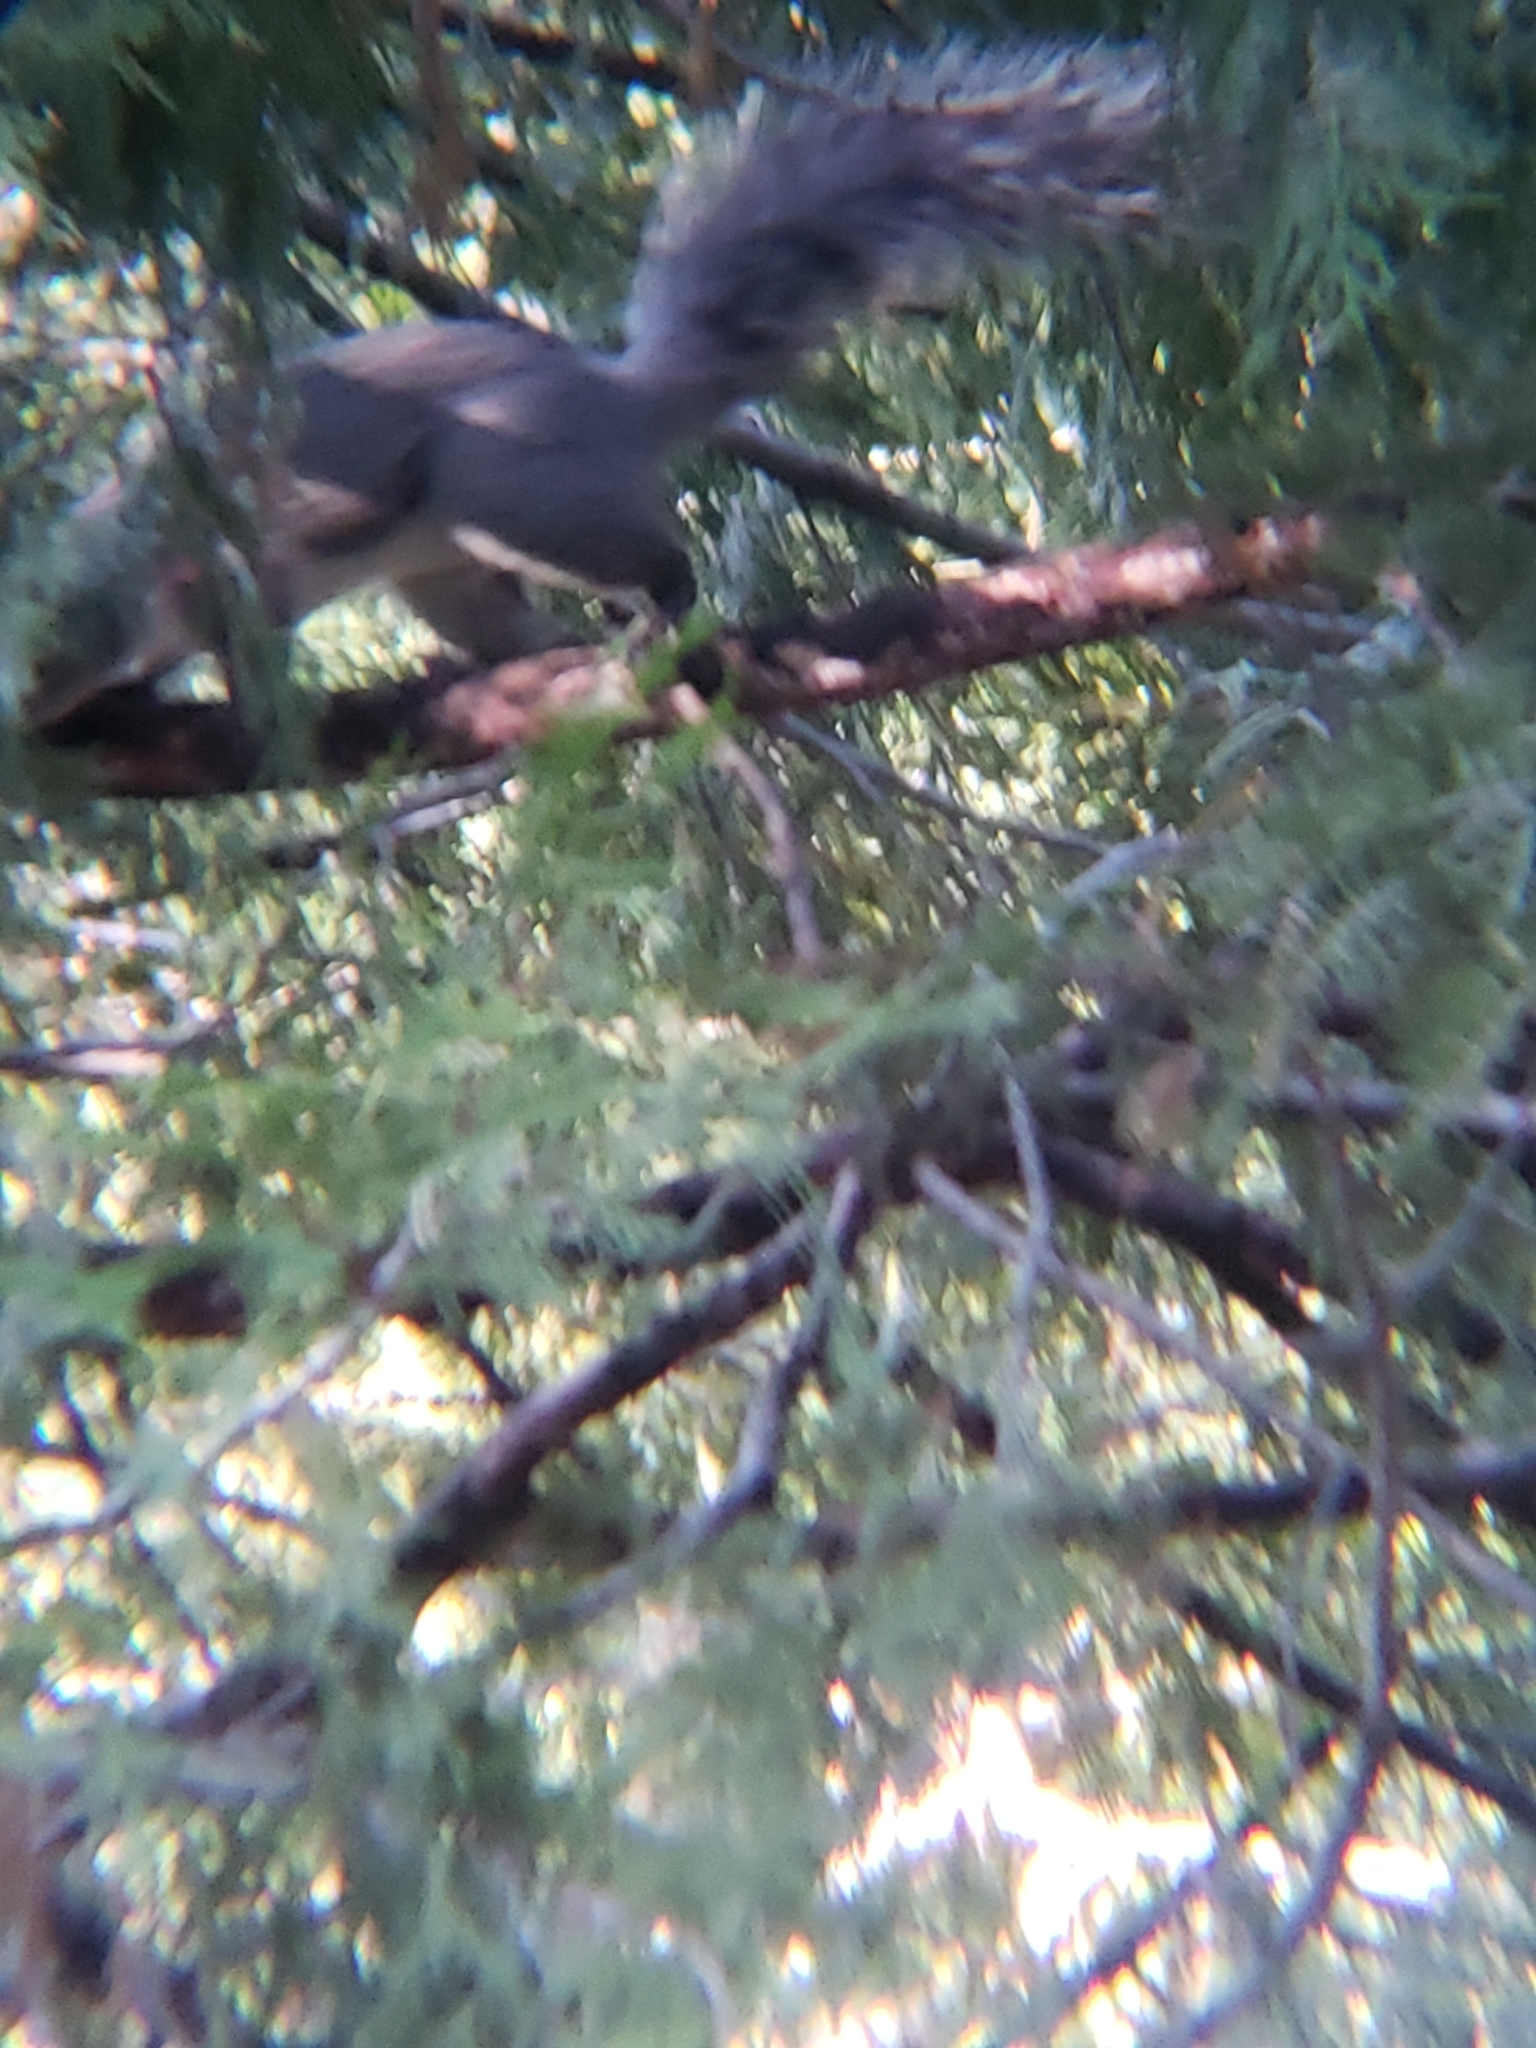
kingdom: Animalia
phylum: Chordata
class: Mammalia
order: Rodentia
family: Sciuridae
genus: Sciurus
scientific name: Sciurus griseus
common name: Western gray squirrel
